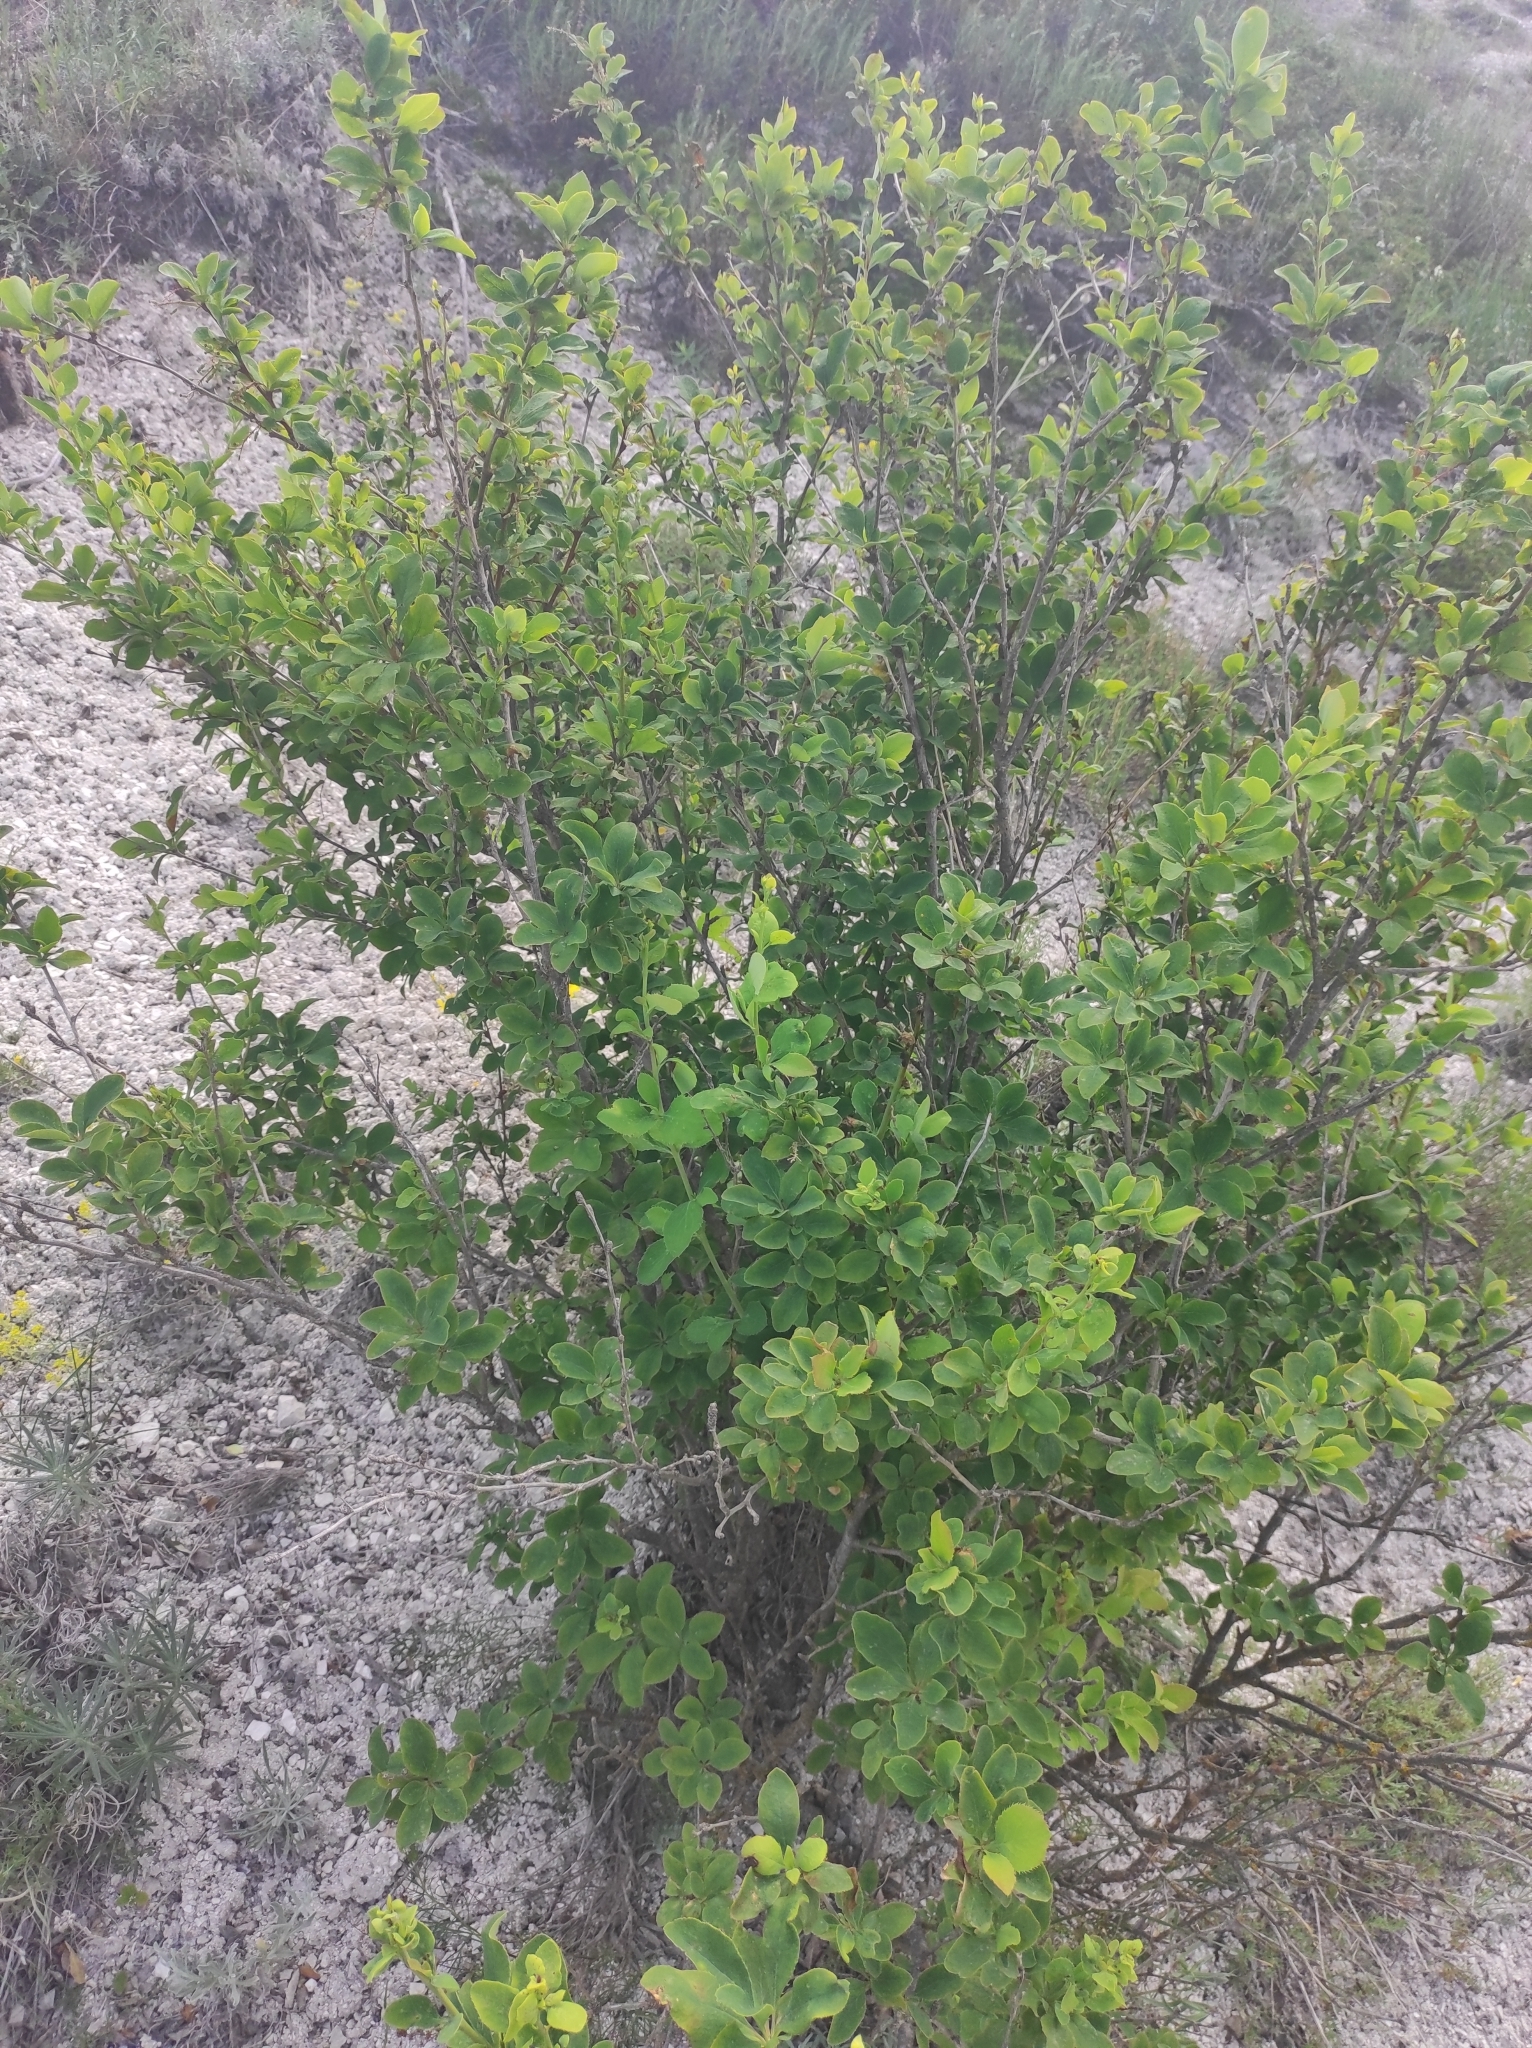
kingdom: Plantae
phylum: Tracheophyta
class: Magnoliopsida
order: Ranunculales
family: Berberidaceae
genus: Berberis
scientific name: Berberis vulgaris
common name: Barberry
